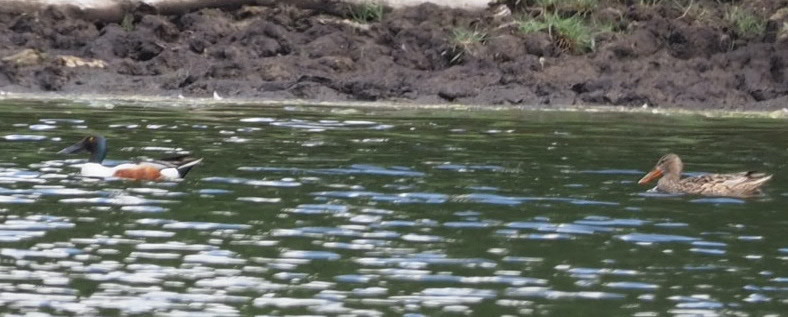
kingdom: Animalia
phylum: Chordata
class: Aves
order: Anseriformes
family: Anatidae
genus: Spatula
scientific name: Spatula clypeata
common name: Northern shoveler
